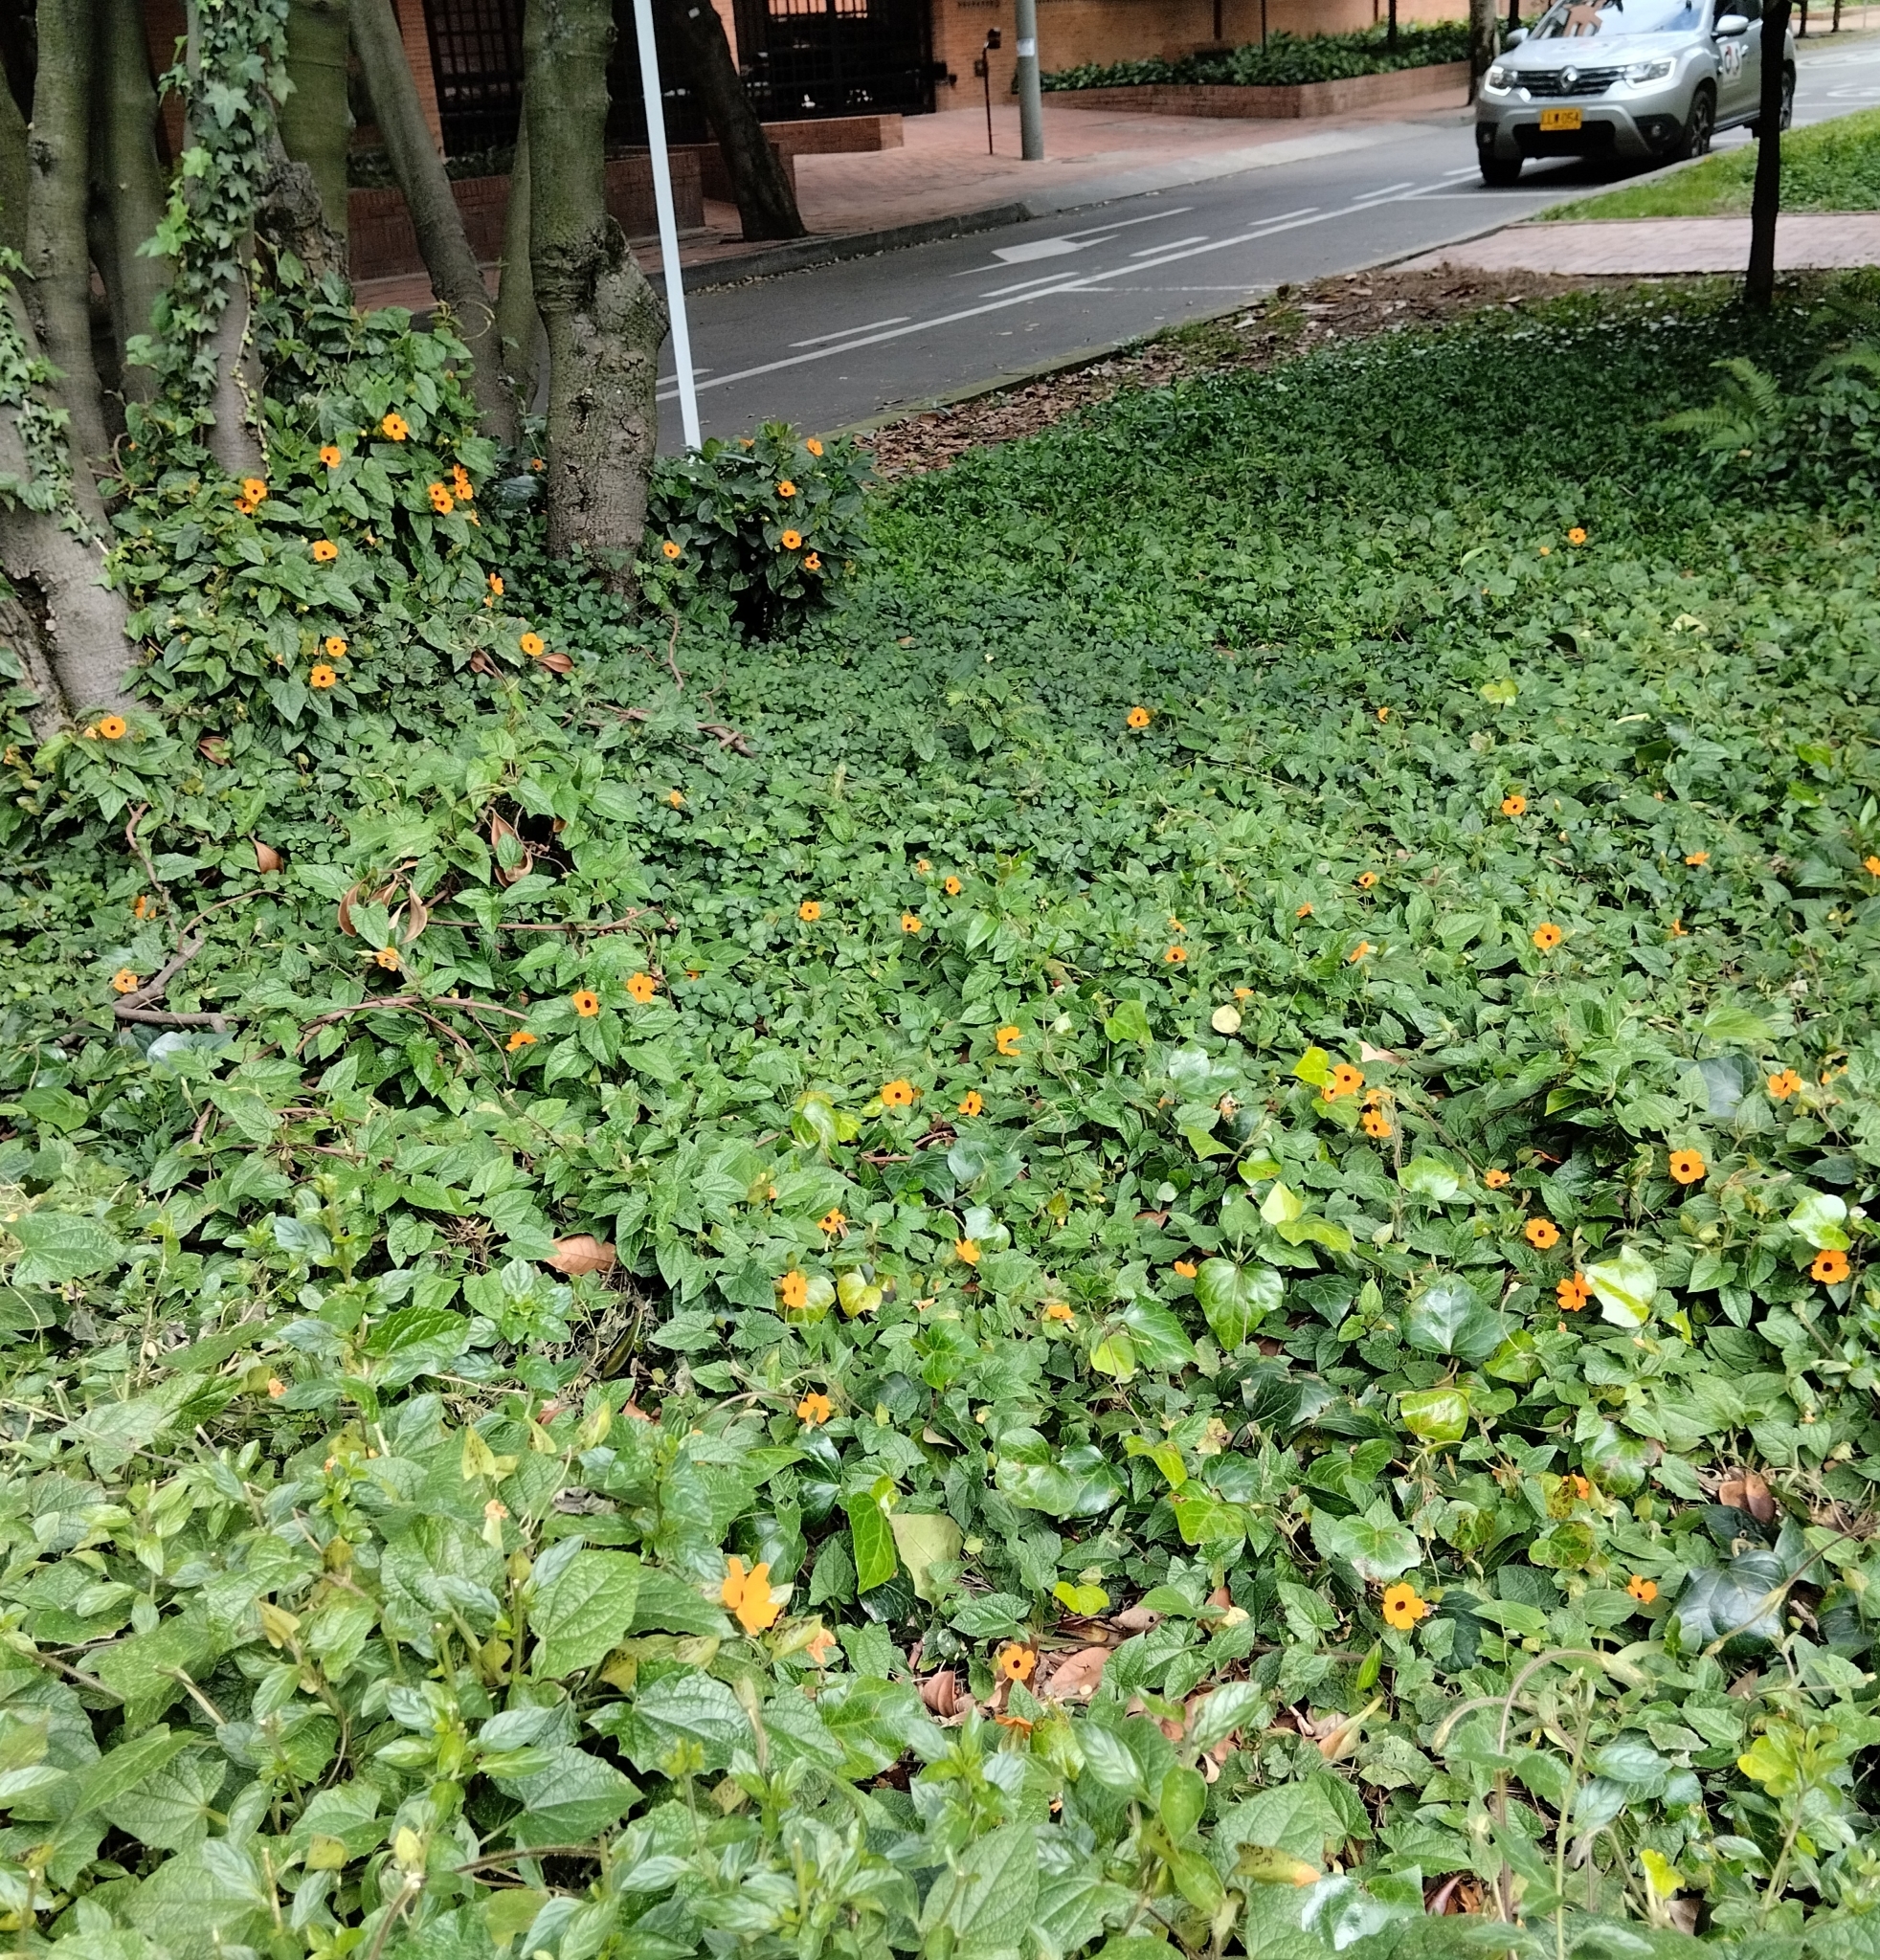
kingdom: Plantae
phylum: Tracheophyta
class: Magnoliopsida
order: Lamiales
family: Acanthaceae
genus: Thunbergia
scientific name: Thunbergia alata
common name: Blackeyed susan vine
